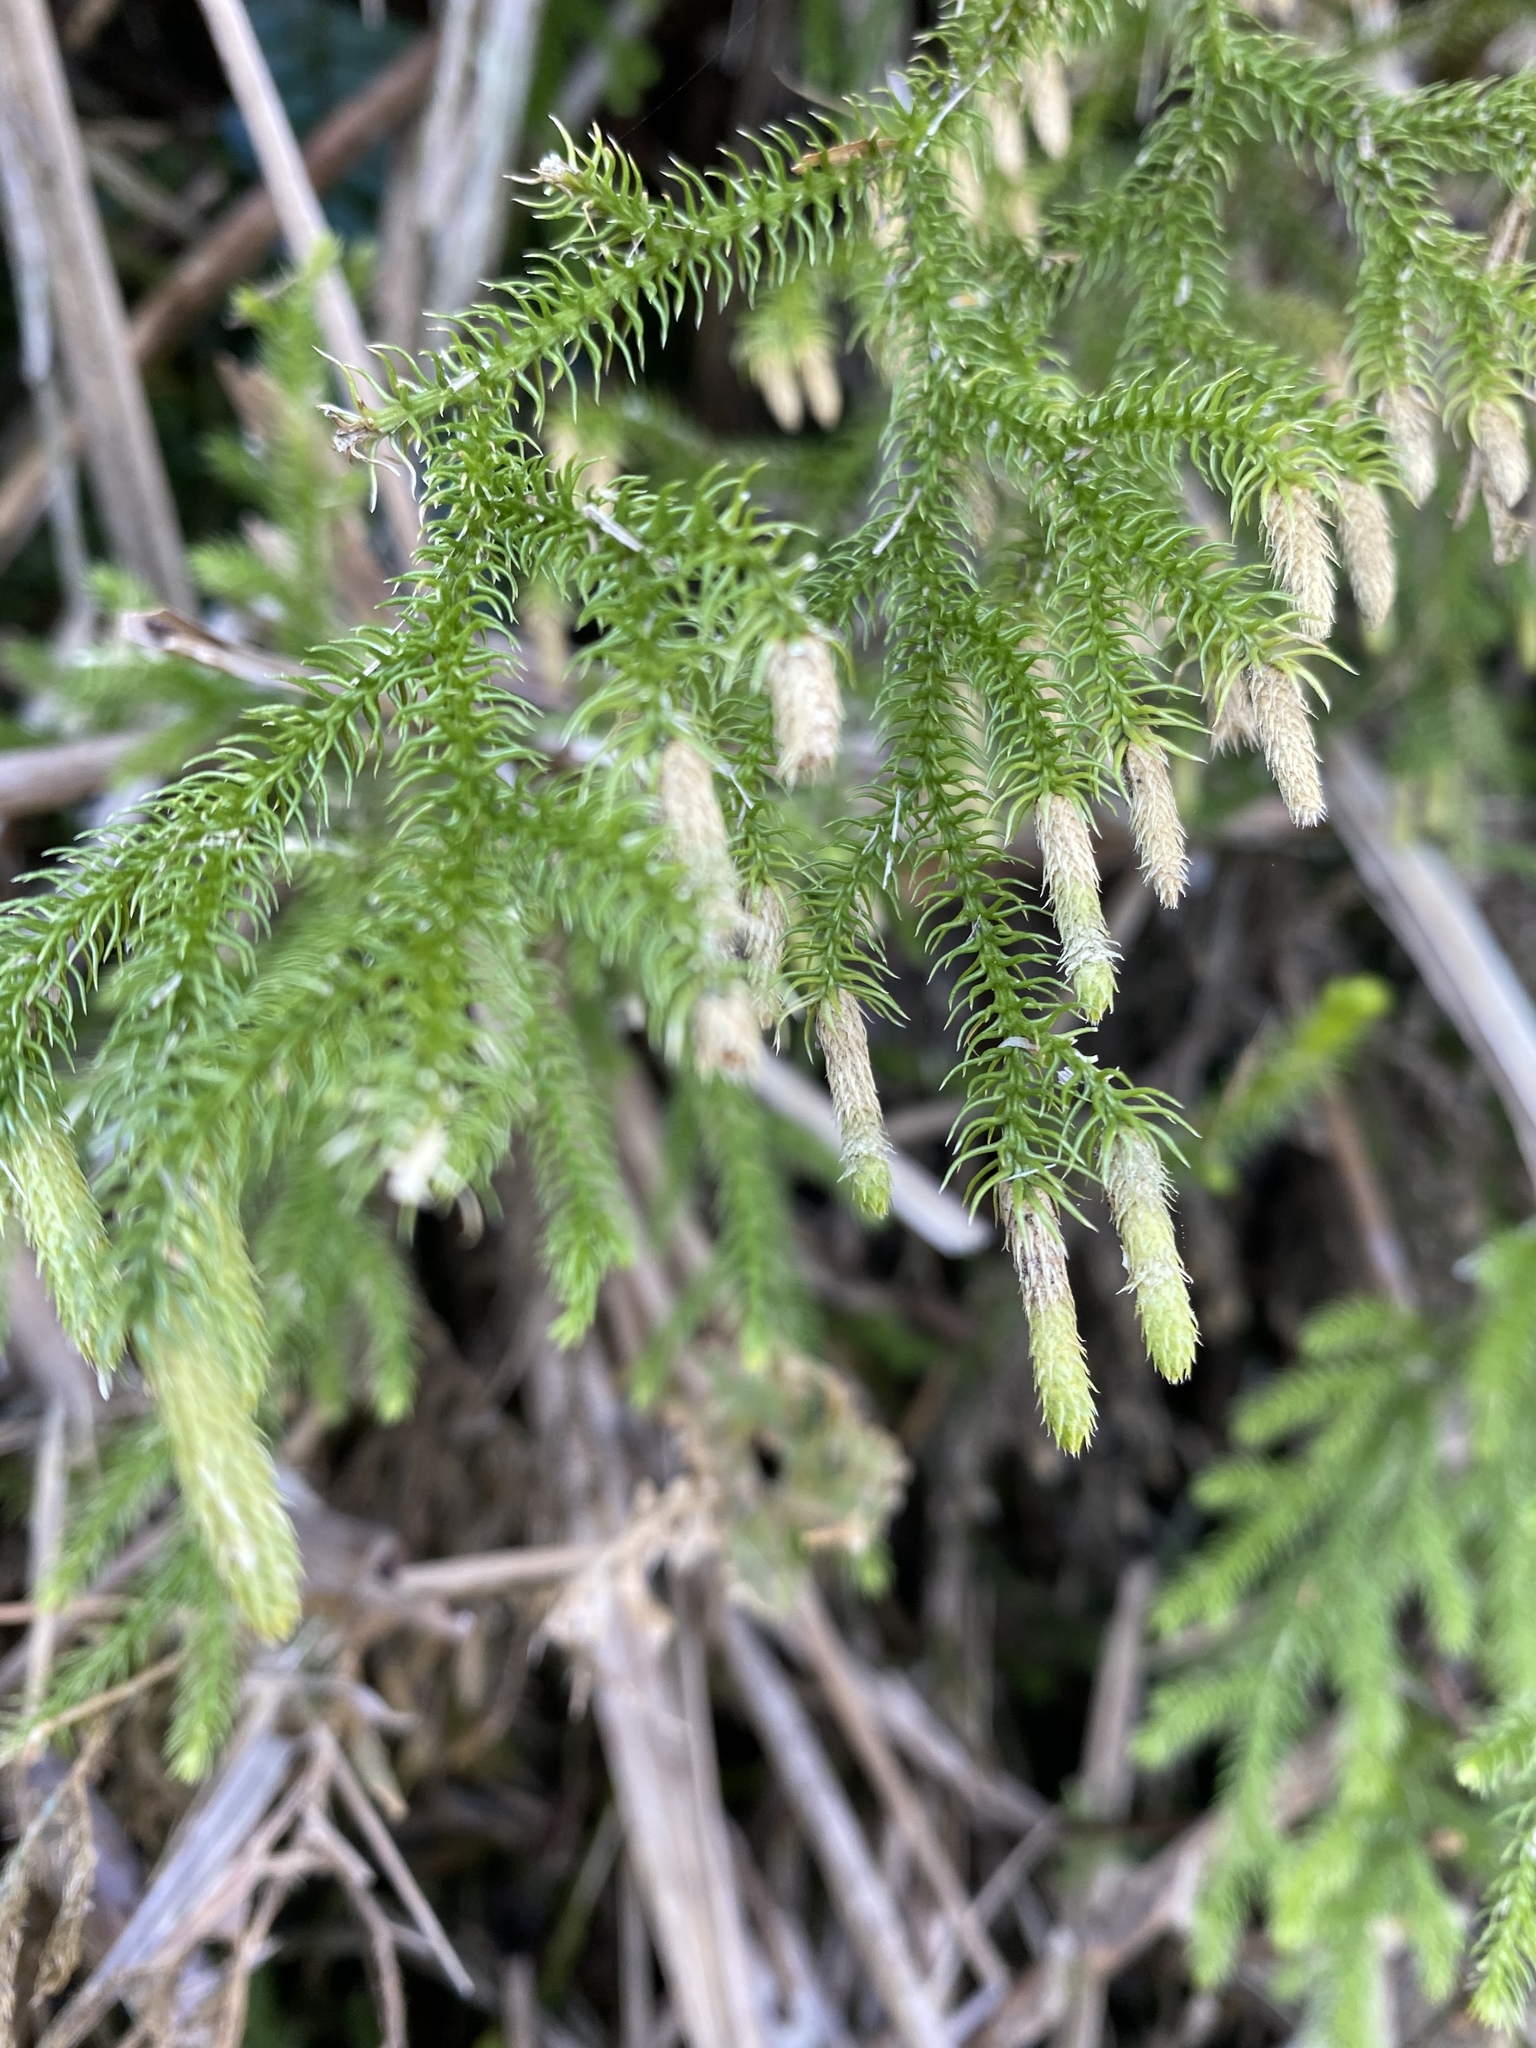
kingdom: Plantae
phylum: Tracheophyta
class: Lycopodiopsida
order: Lycopodiales
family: Lycopodiaceae
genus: Palhinhaea
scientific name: Palhinhaea cernua
